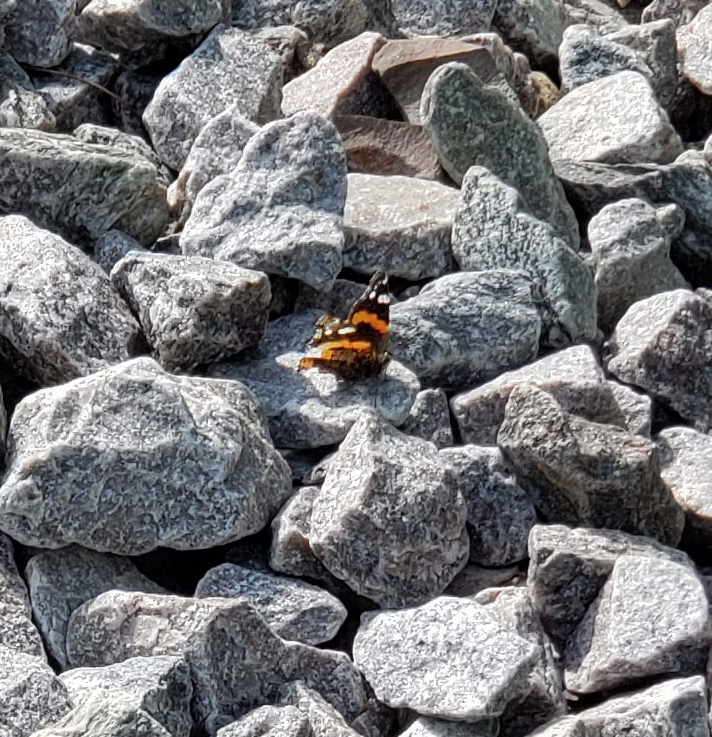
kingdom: Animalia
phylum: Arthropoda
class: Insecta
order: Lepidoptera
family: Nymphalidae
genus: Vanessa
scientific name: Vanessa atalanta
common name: Red admiral
